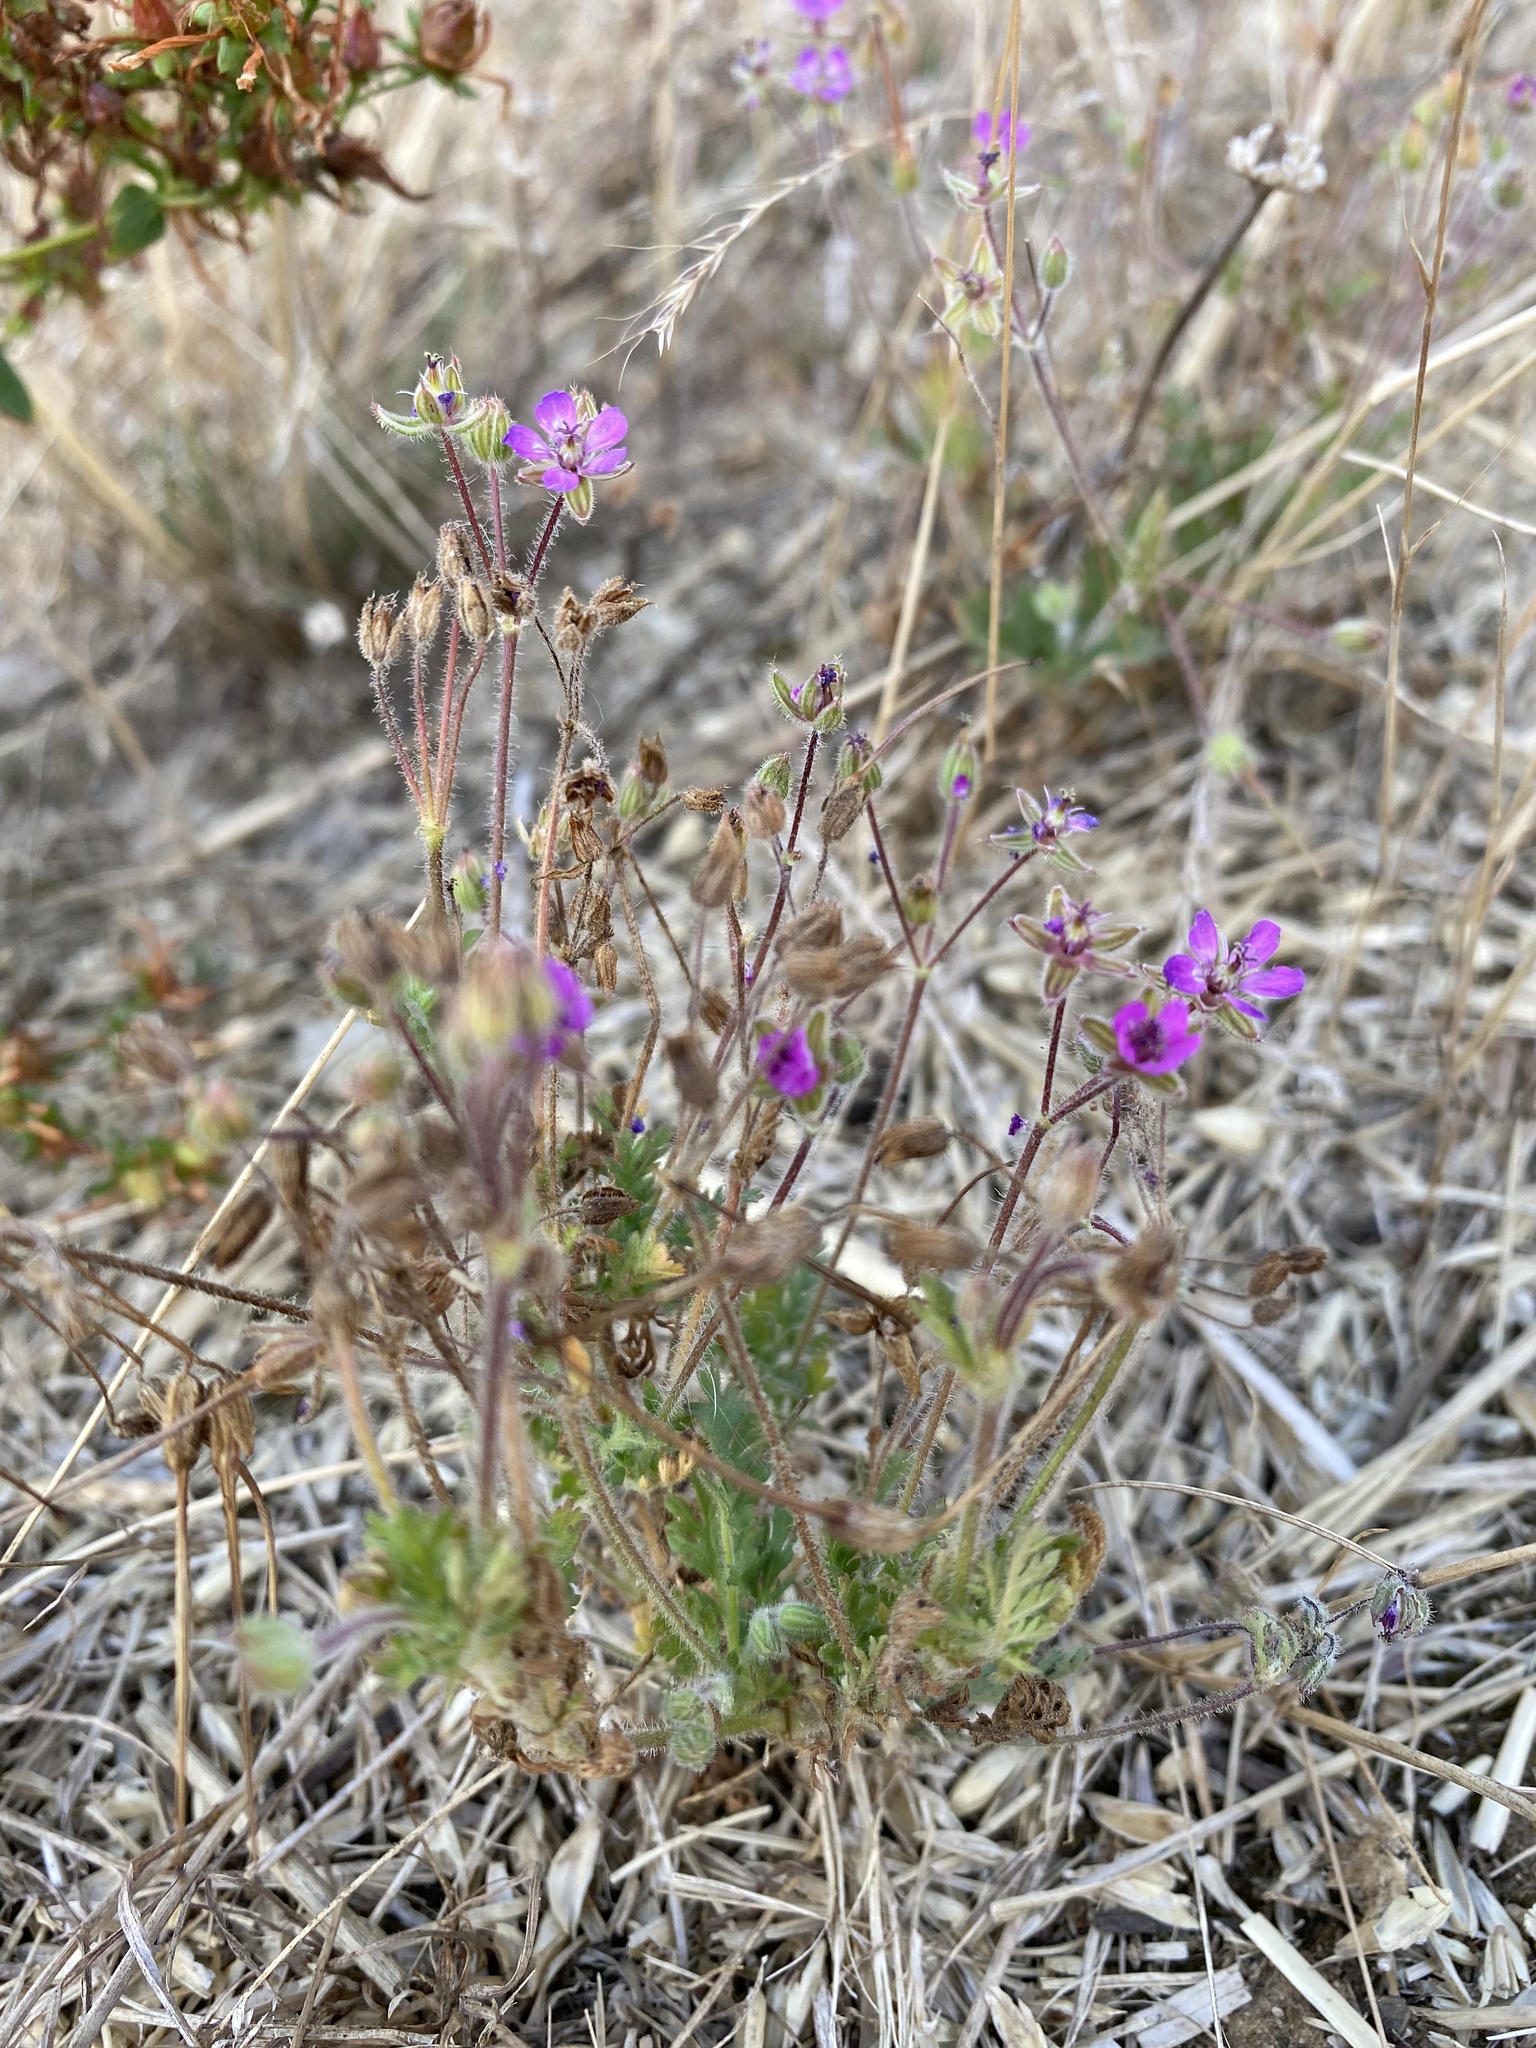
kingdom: Plantae
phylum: Tracheophyta
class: Magnoliopsida
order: Geraniales
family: Geraniaceae
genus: Erodium
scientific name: Erodium cicutarium
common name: Common stork's-bill
